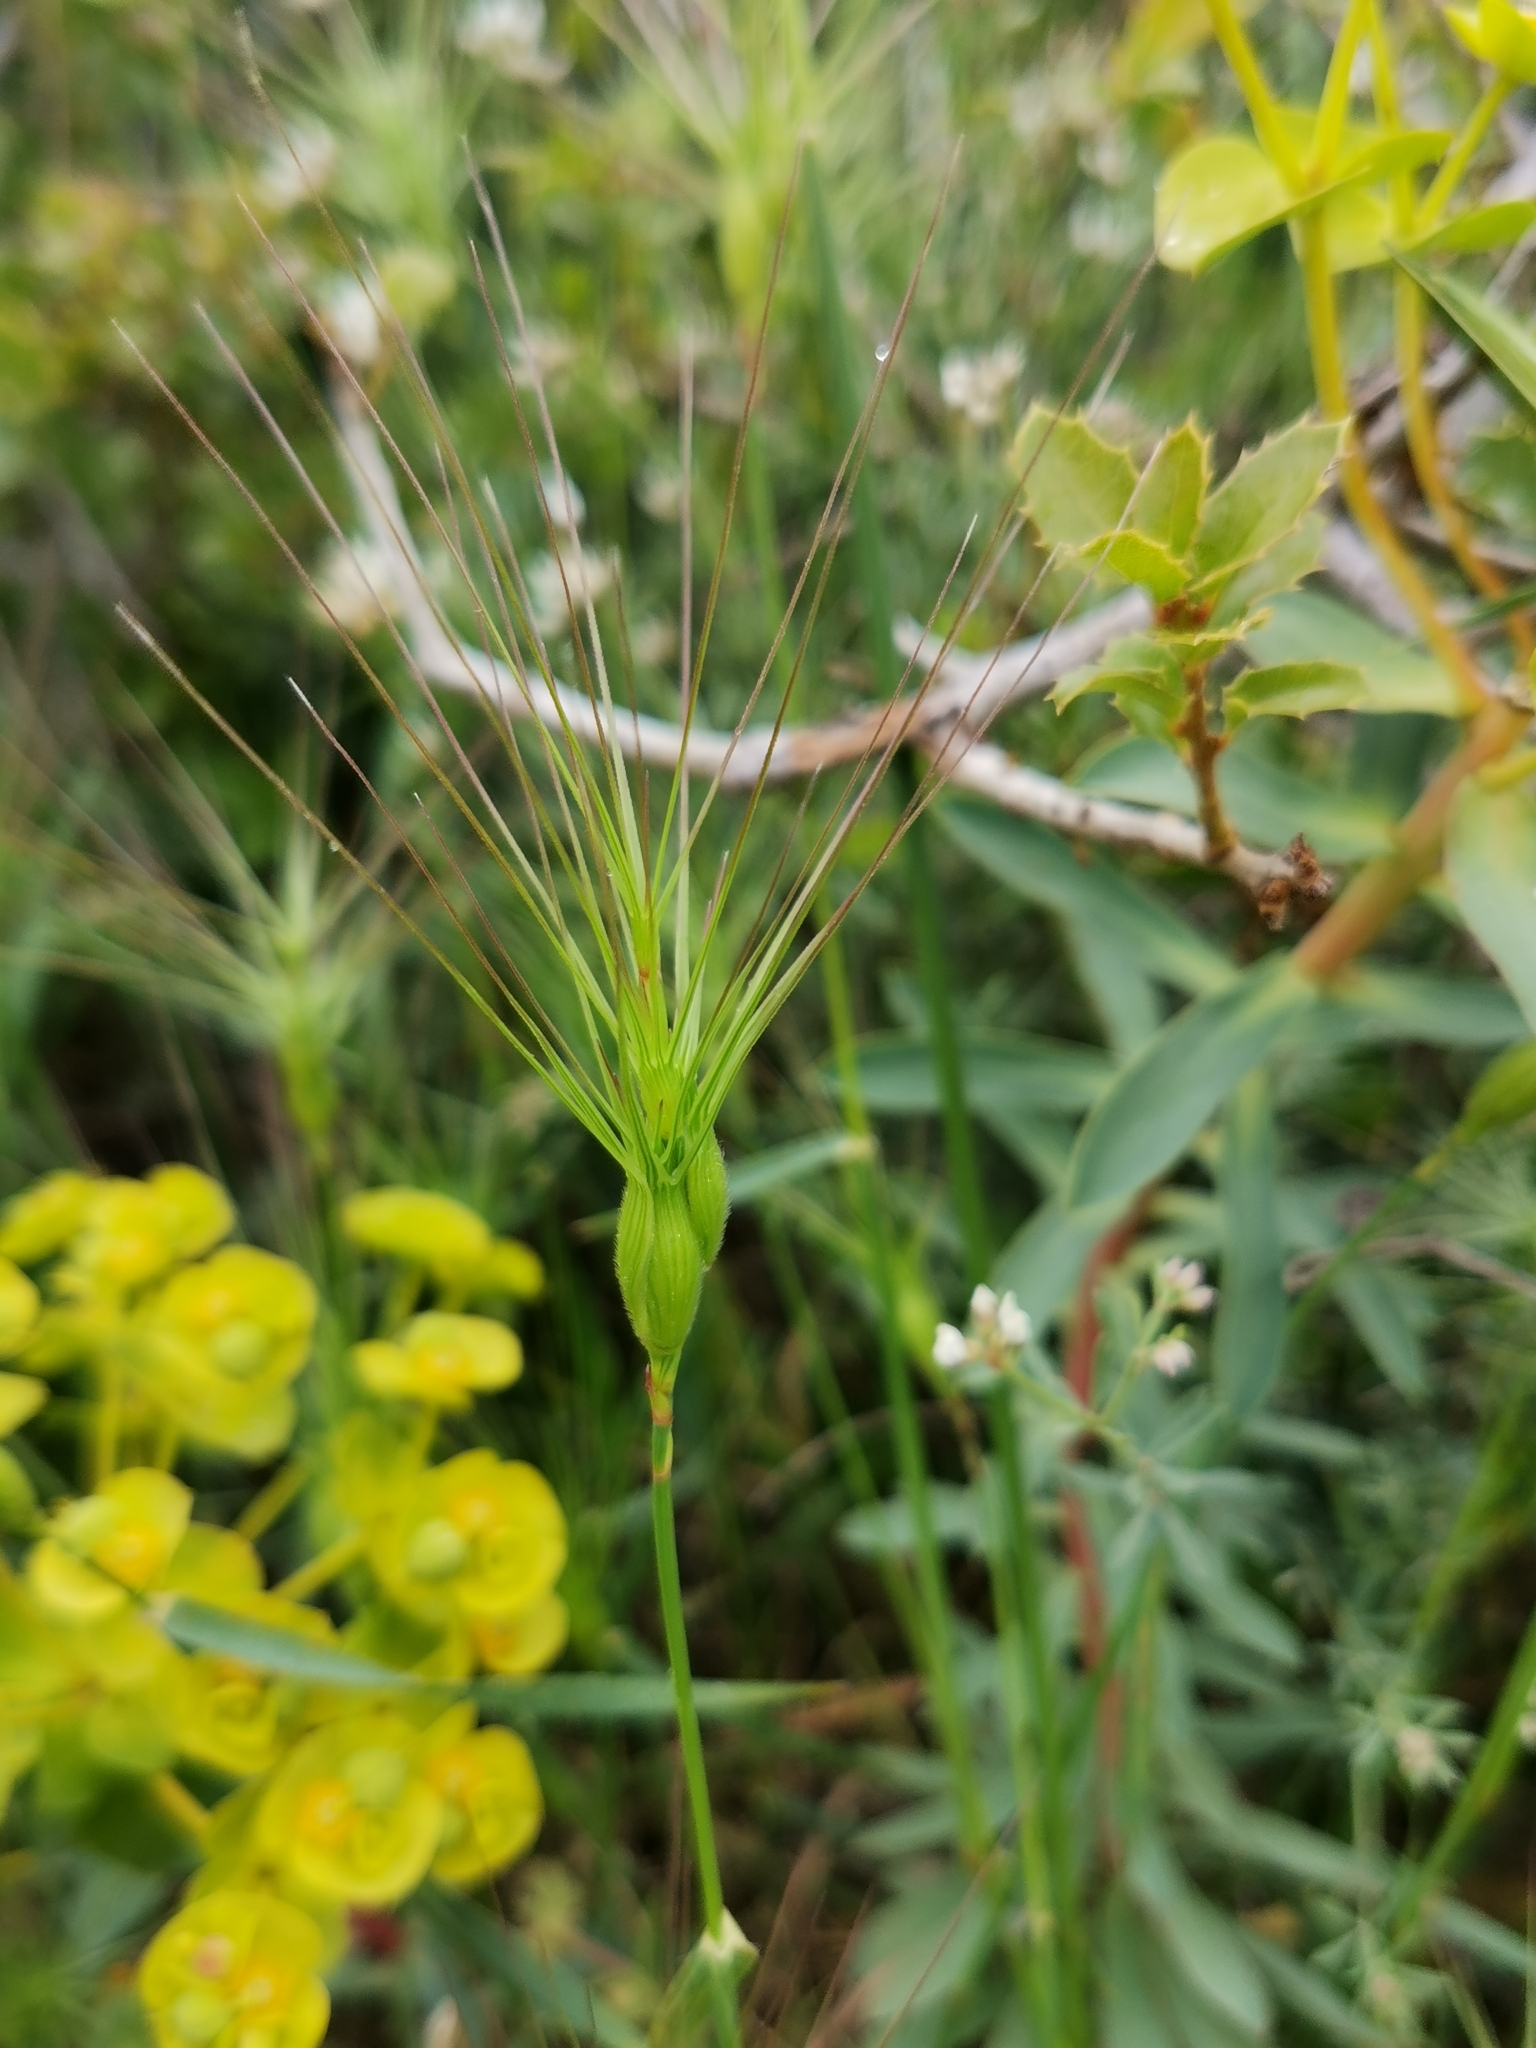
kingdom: Plantae
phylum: Tracheophyta
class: Liliopsida
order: Poales
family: Poaceae
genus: Aegilops
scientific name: Aegilops geniculata
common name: Ovate goat grass
